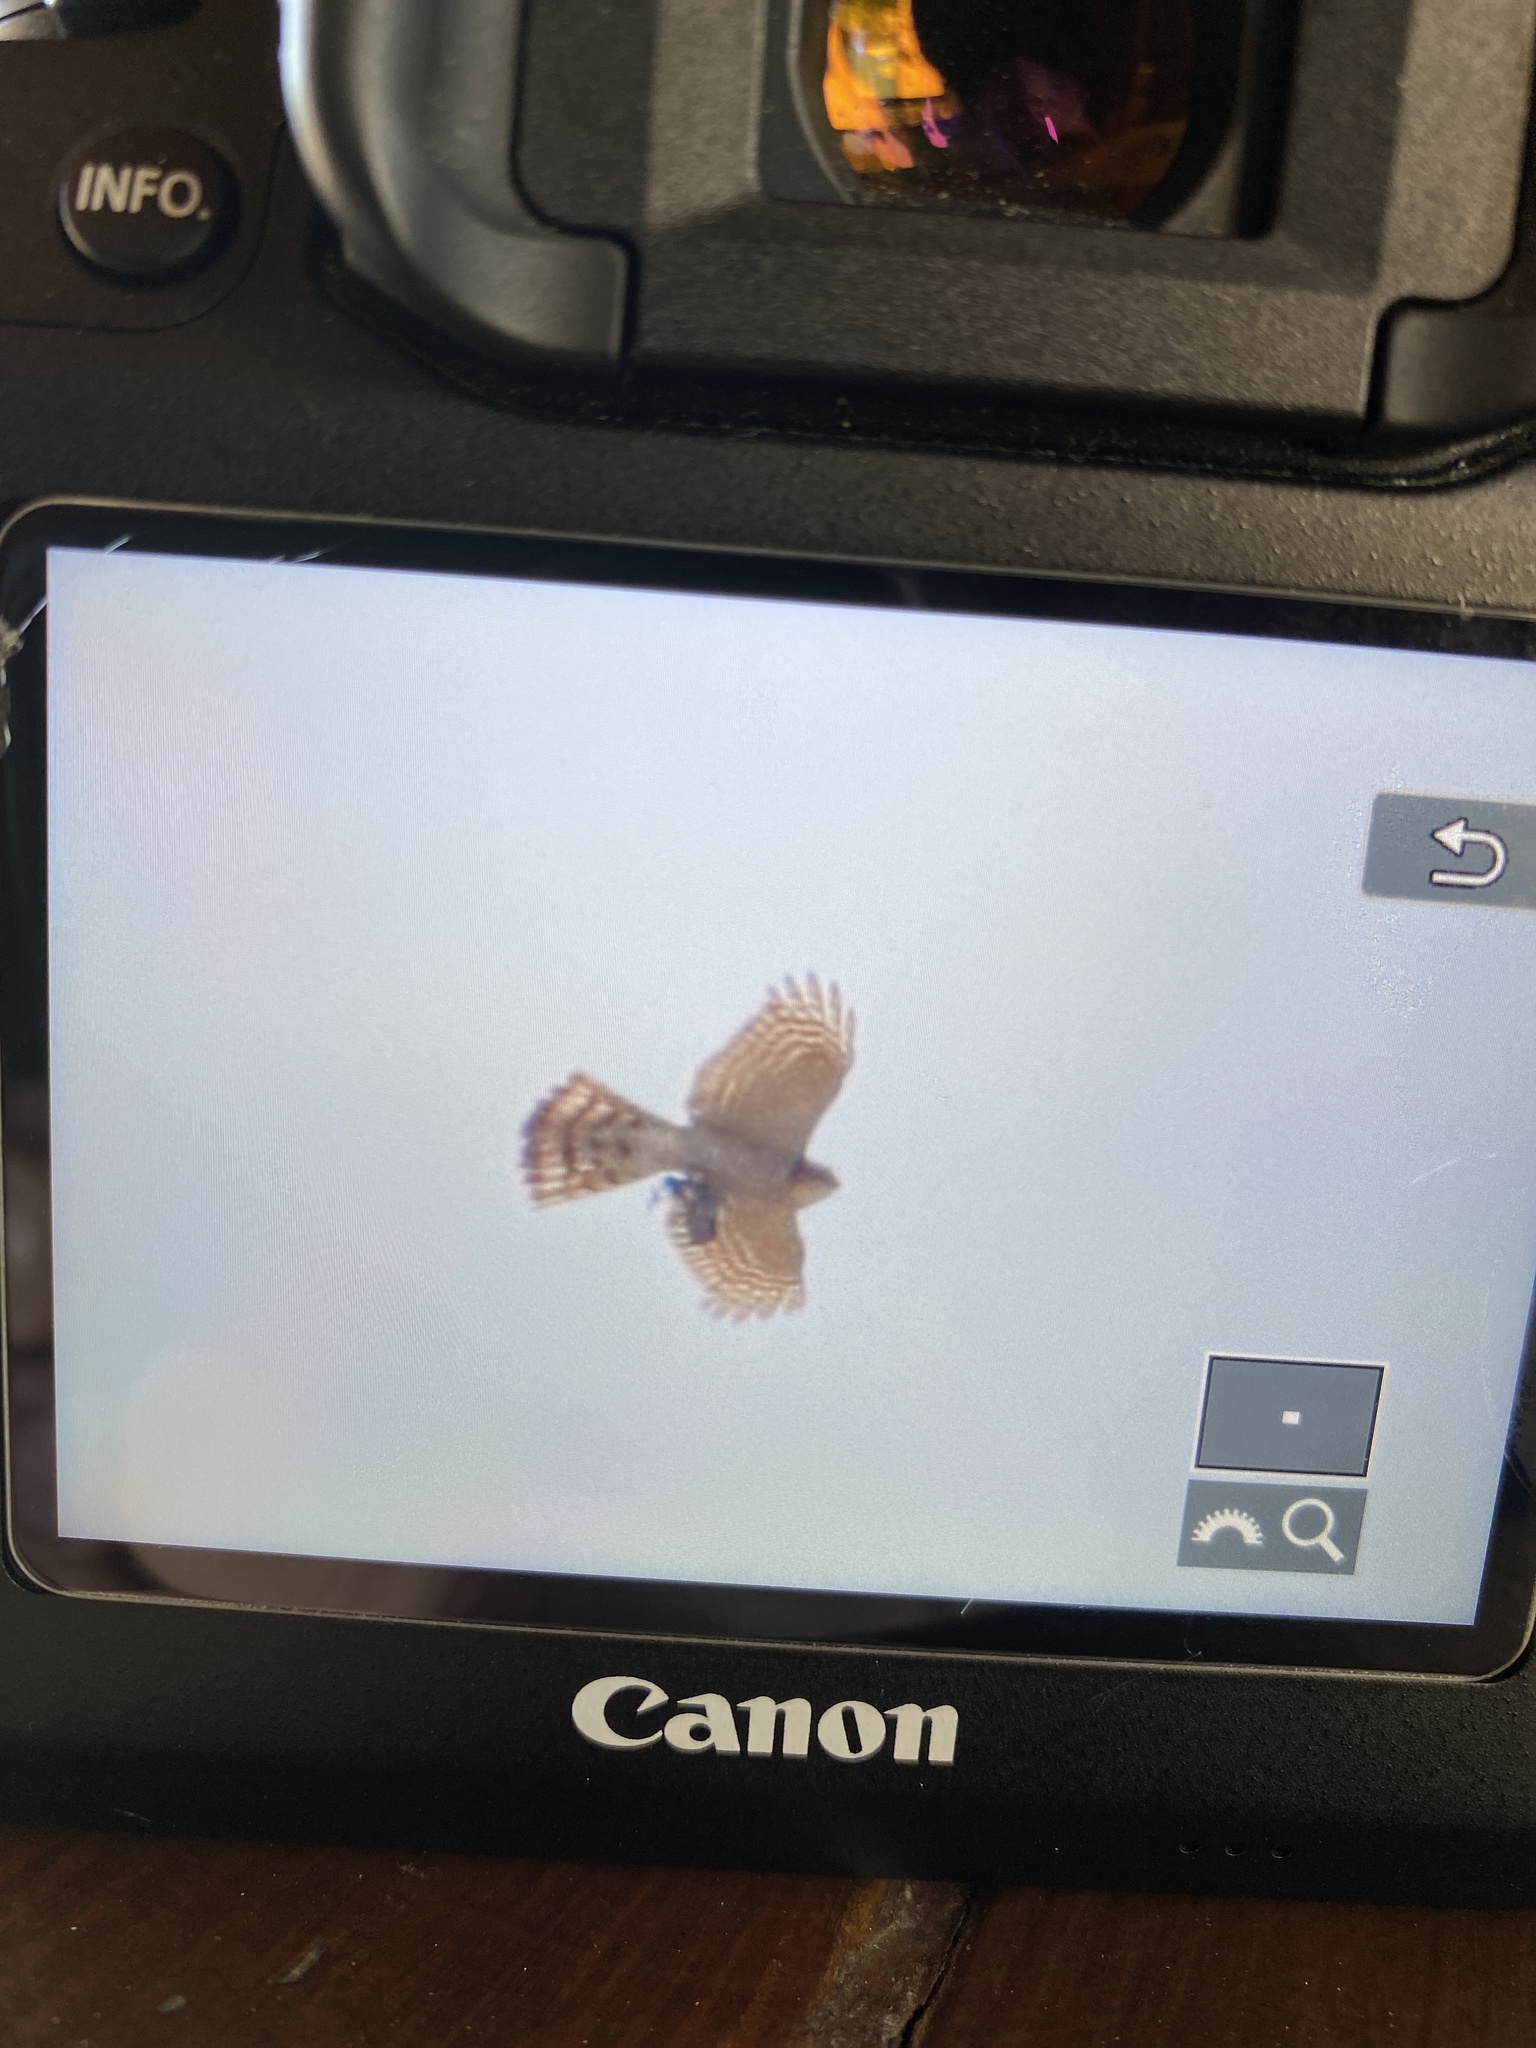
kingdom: Animalia
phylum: Chordata
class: Aves
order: Accipitriformes
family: Accipitridae
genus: Accipiter
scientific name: Accipiter nisus
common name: Eurasian sparrowhawk
